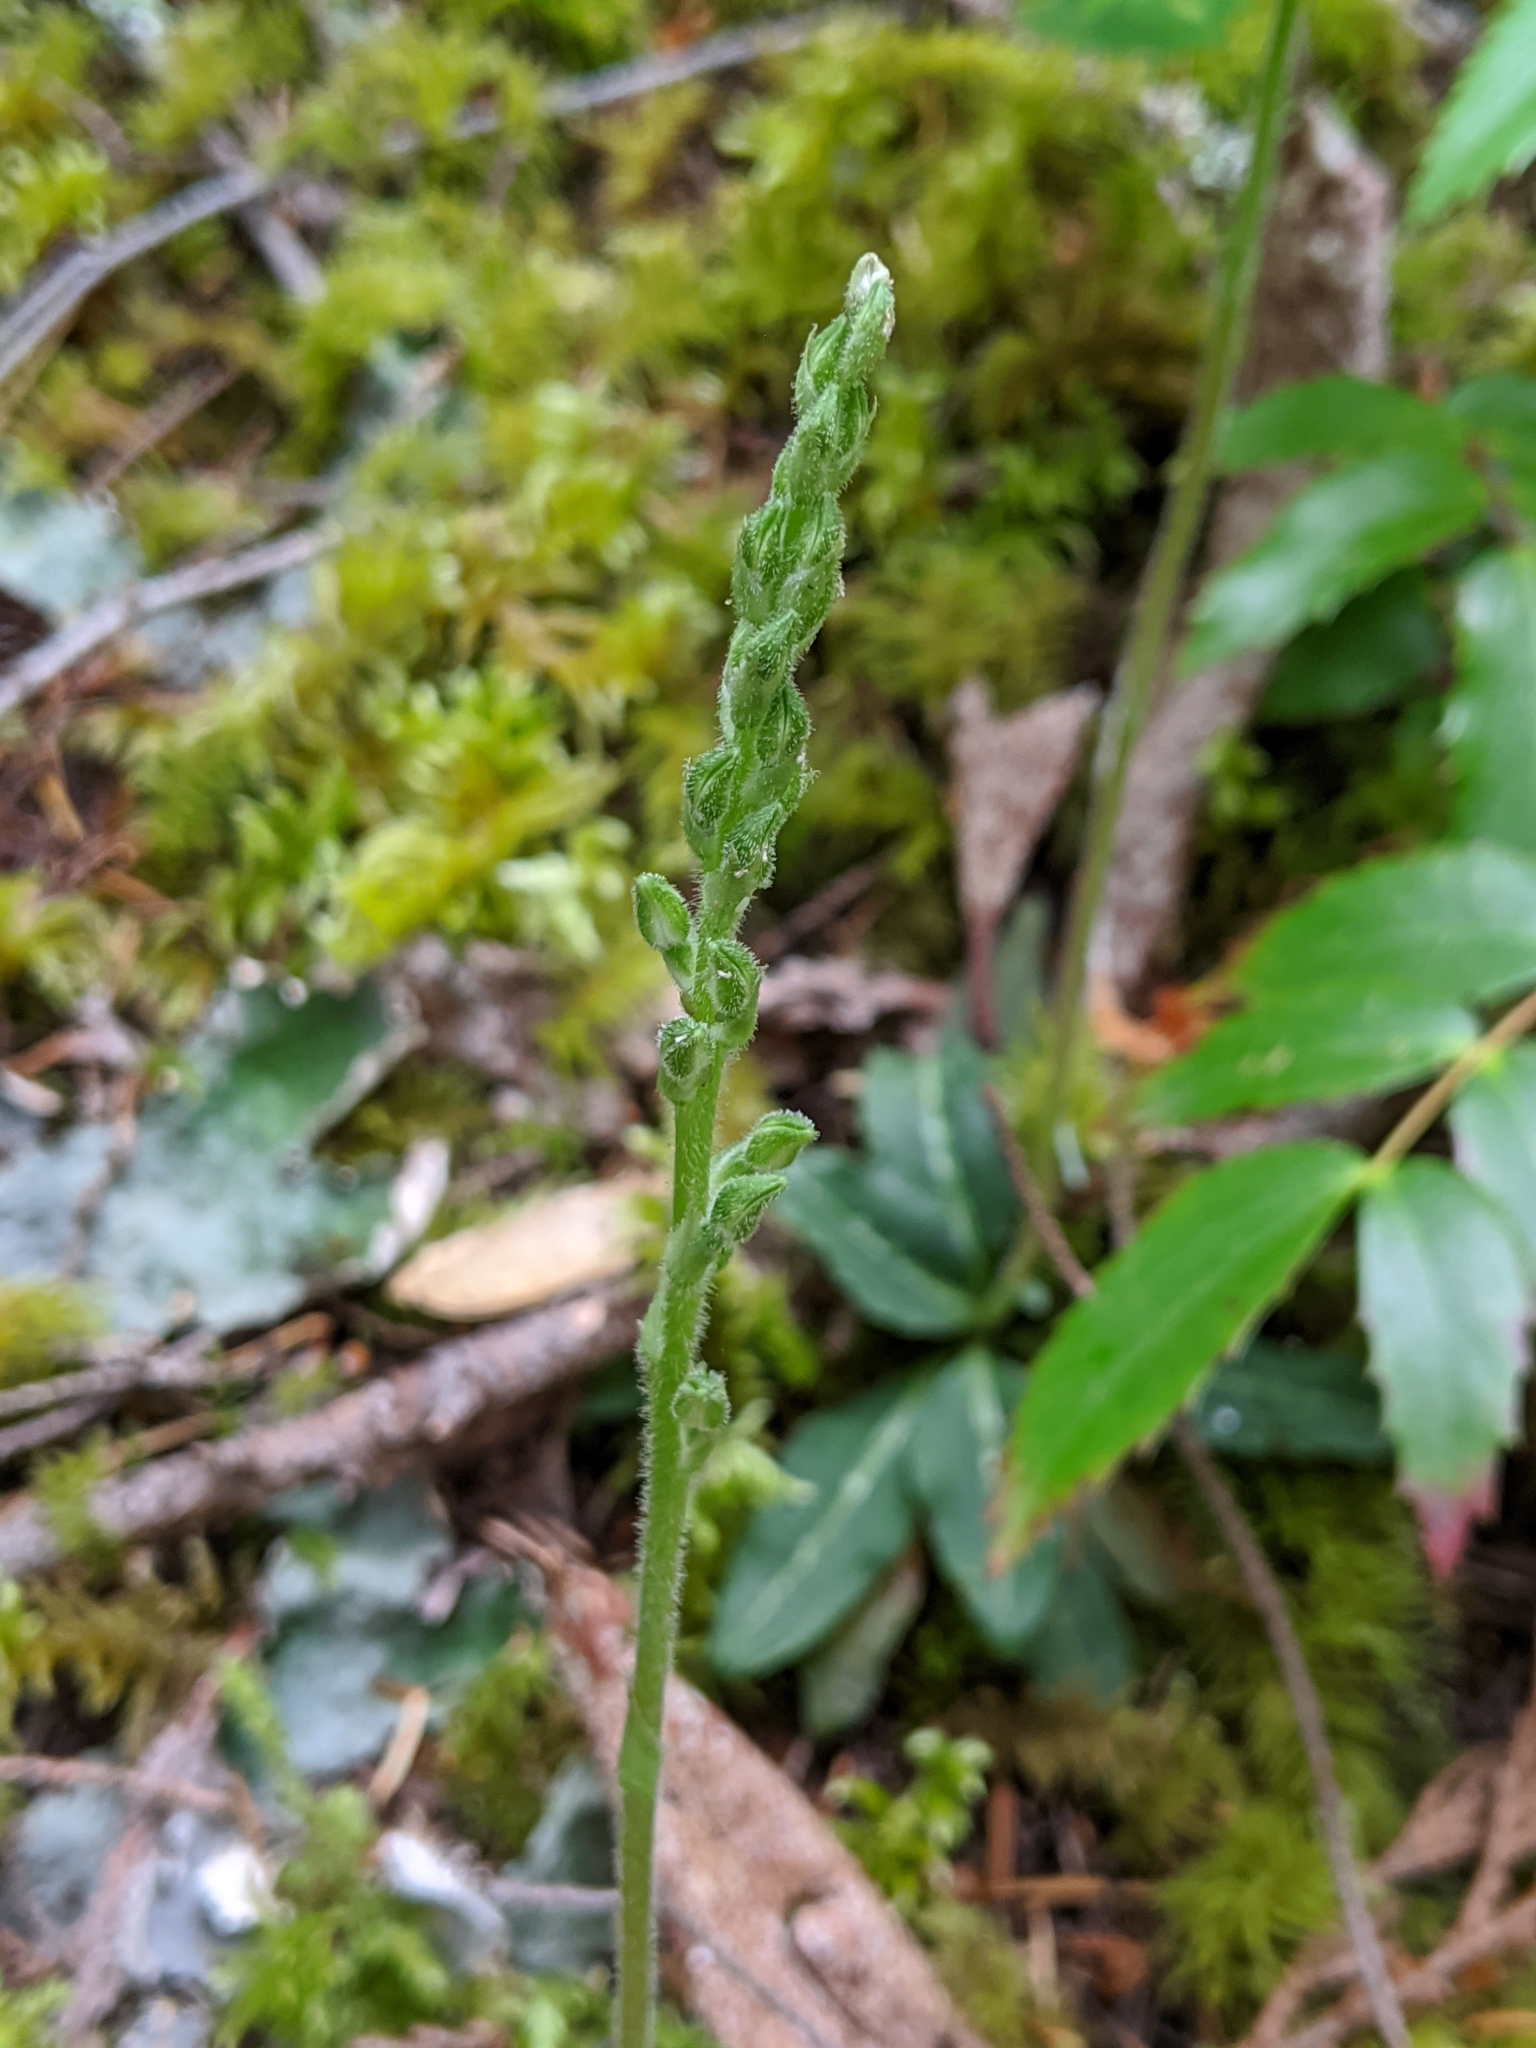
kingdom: Plantae
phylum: Tracheophyta
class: Liliopsida
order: Asparagales
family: Orchidaceae
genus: Goodyera
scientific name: Goodyera oblongifolia
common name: Giant rattlesnake-plantain
